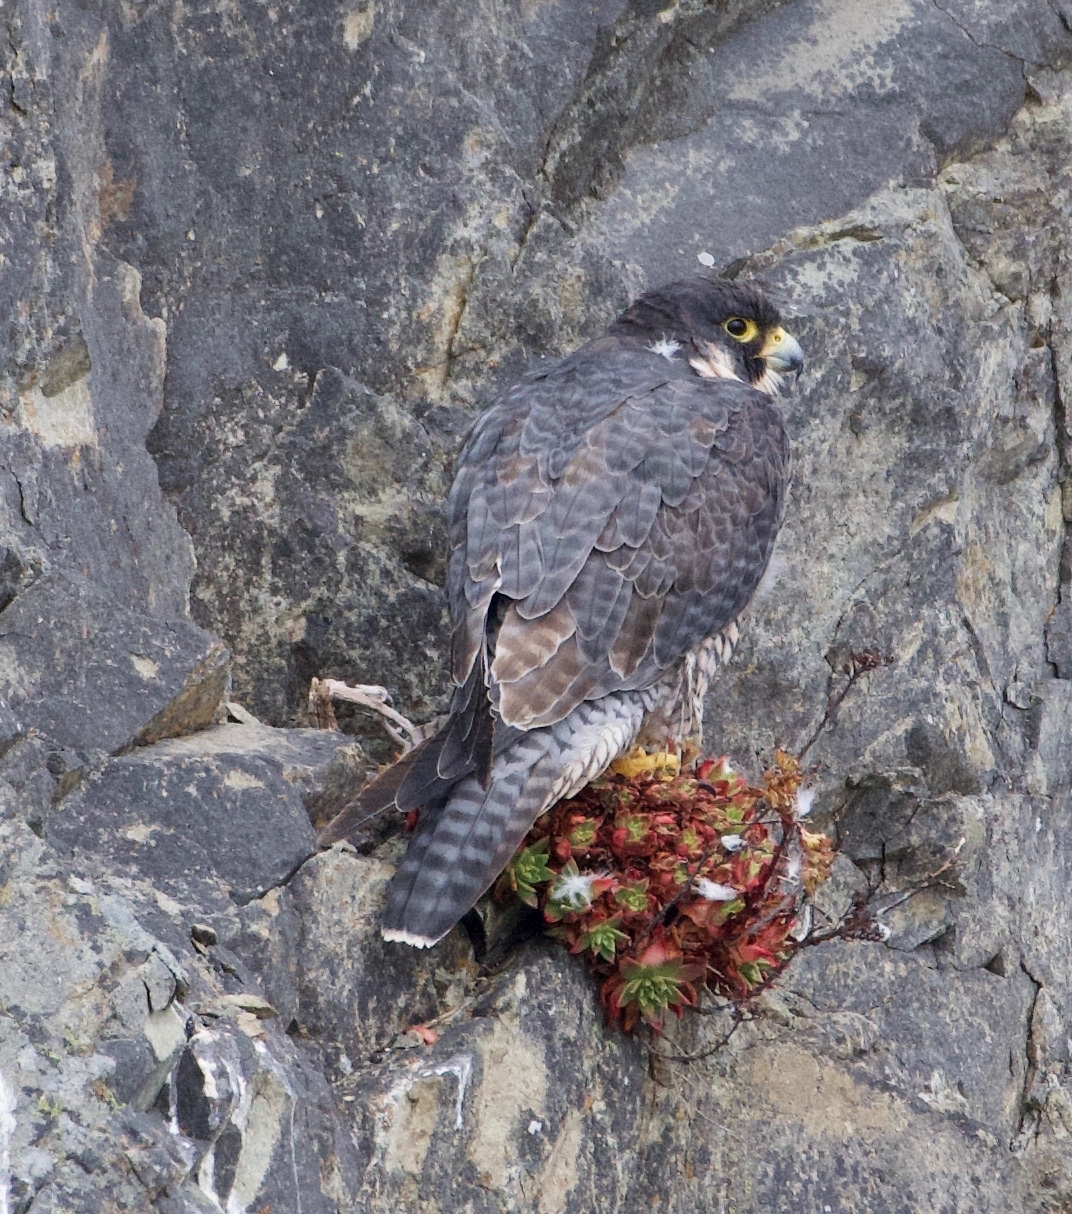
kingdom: Animalia
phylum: Chordata
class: Aves
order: Falconiformes
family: Falconidae
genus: Falco
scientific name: Falco peregrinus
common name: Peregrine falcon
